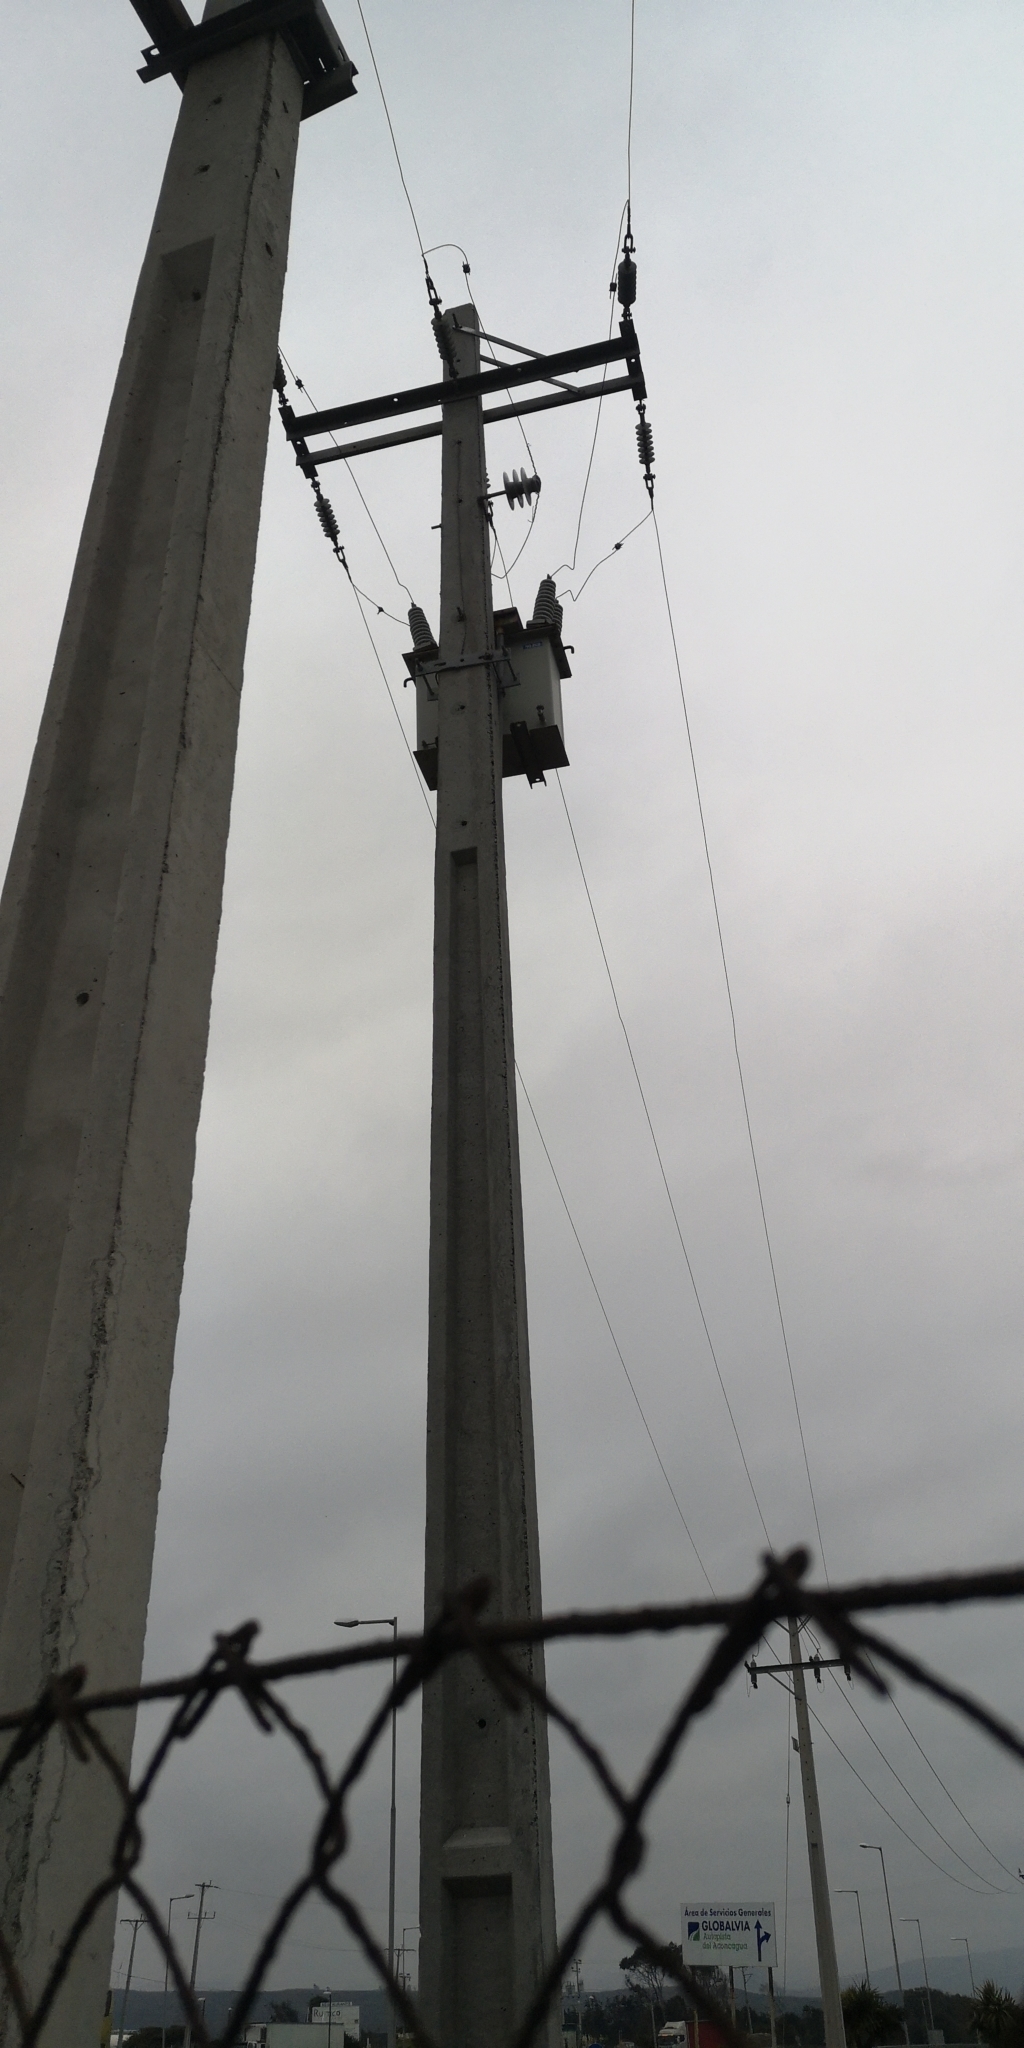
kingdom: Animalia
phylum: Chordata
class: Aves
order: Charadriiformes
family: Laridae
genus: Larus
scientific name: Larus dominicanus
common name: Kelp gull
